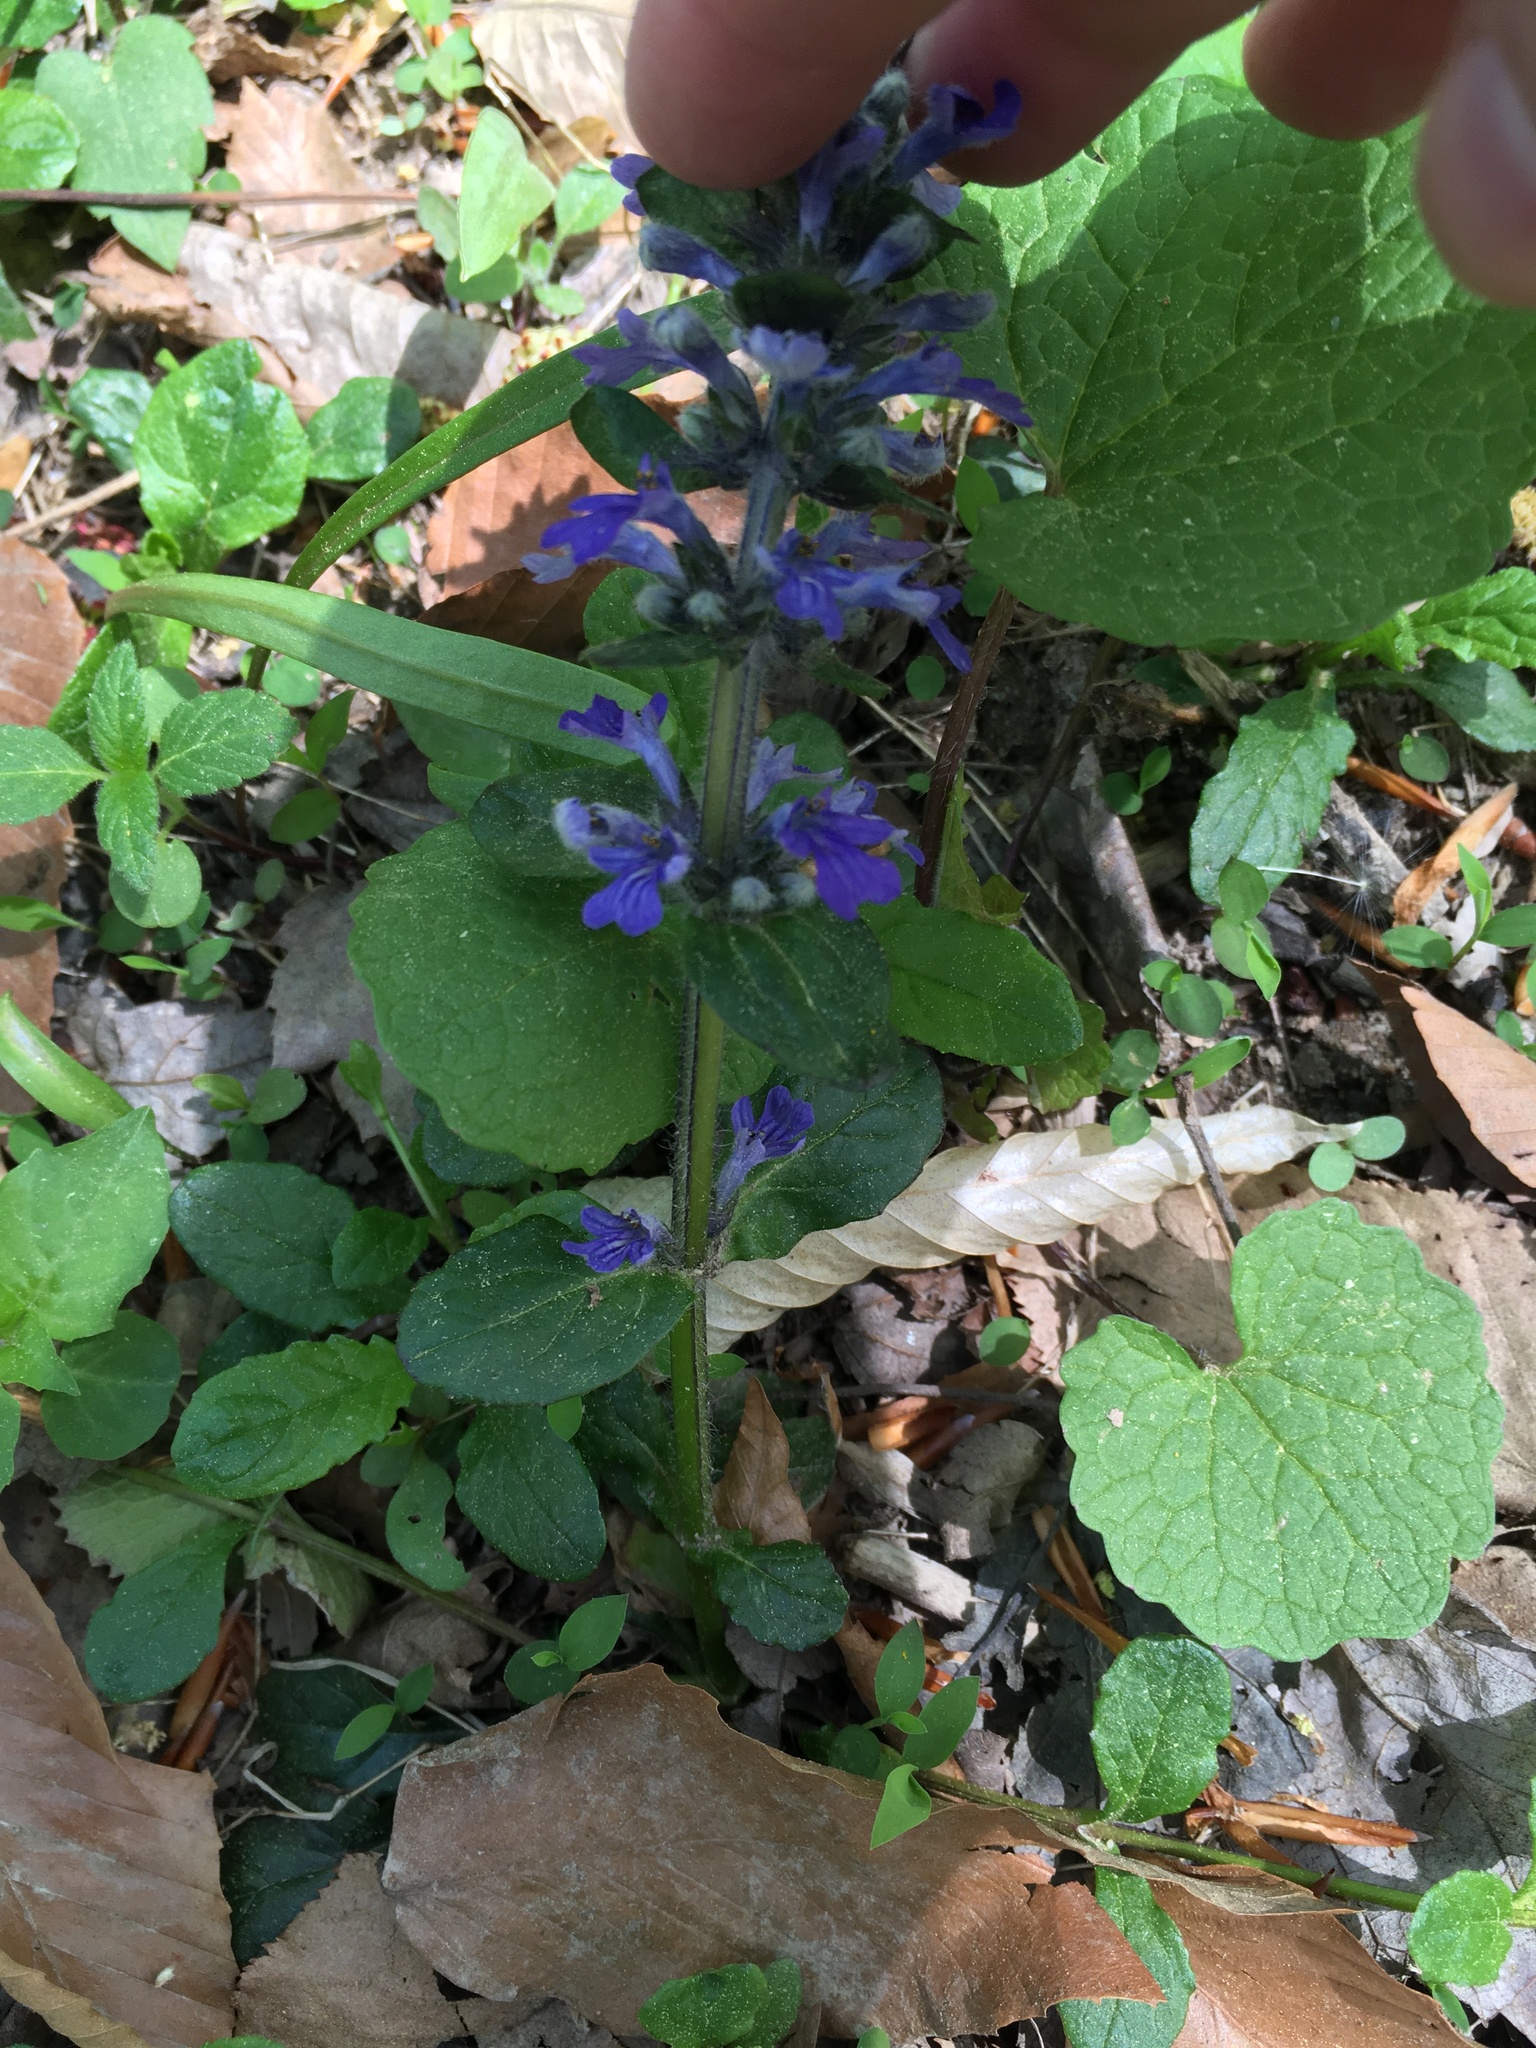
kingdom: Plantae
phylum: Tracheophyta
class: Magnoliopsida
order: Lamiales
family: Lamiaceae
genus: Ajuga
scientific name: Ajuga reptans
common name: Bugle
